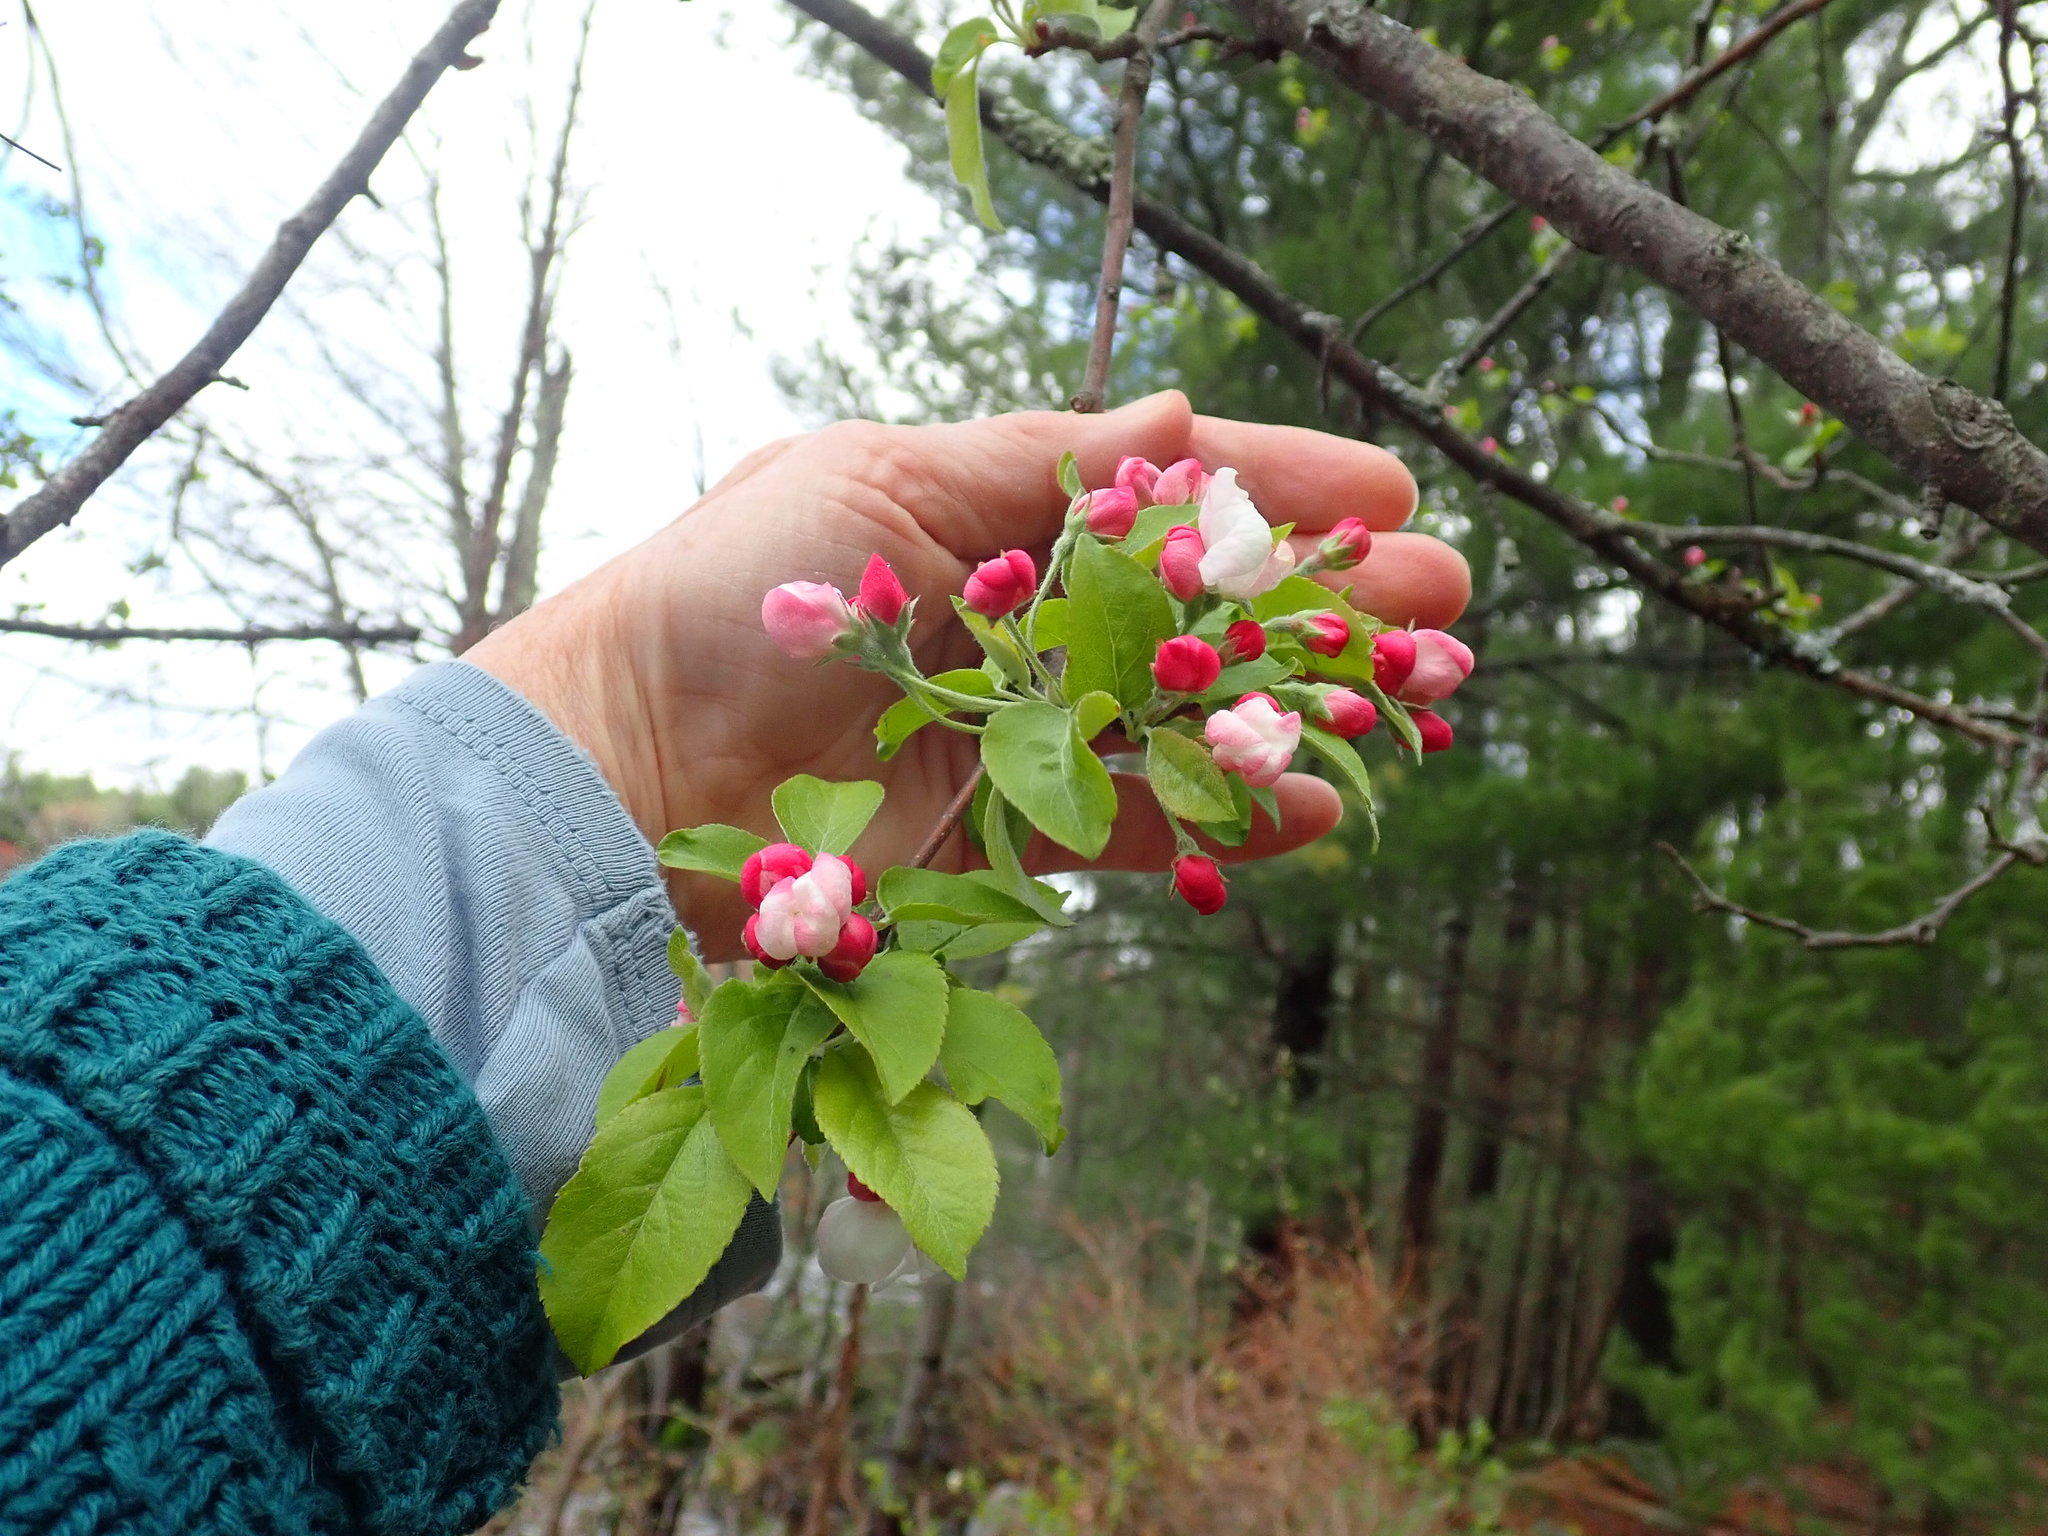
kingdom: Plantae
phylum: Tracheophyta
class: Magnoliopsida
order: Rosales
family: Rosaceae
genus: Malus
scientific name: Malus
